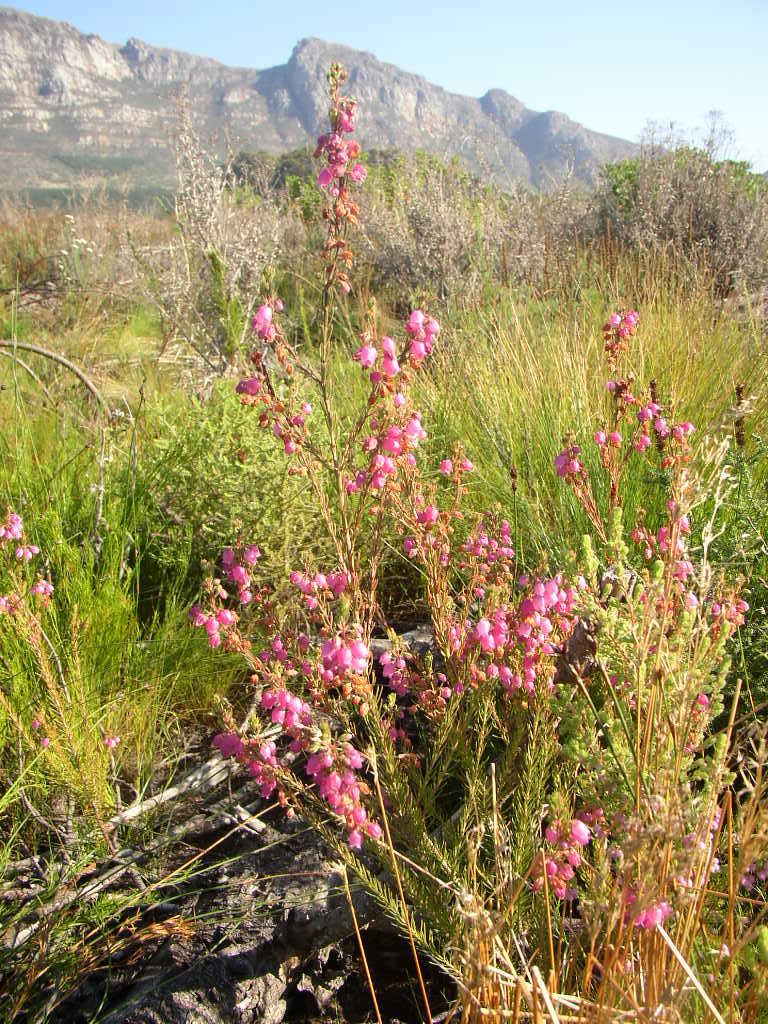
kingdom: Plantae
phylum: Tracheophyta
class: Magnoliopsida
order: Ericales
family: Ericaceae
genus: Erica
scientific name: Erica viscaria
